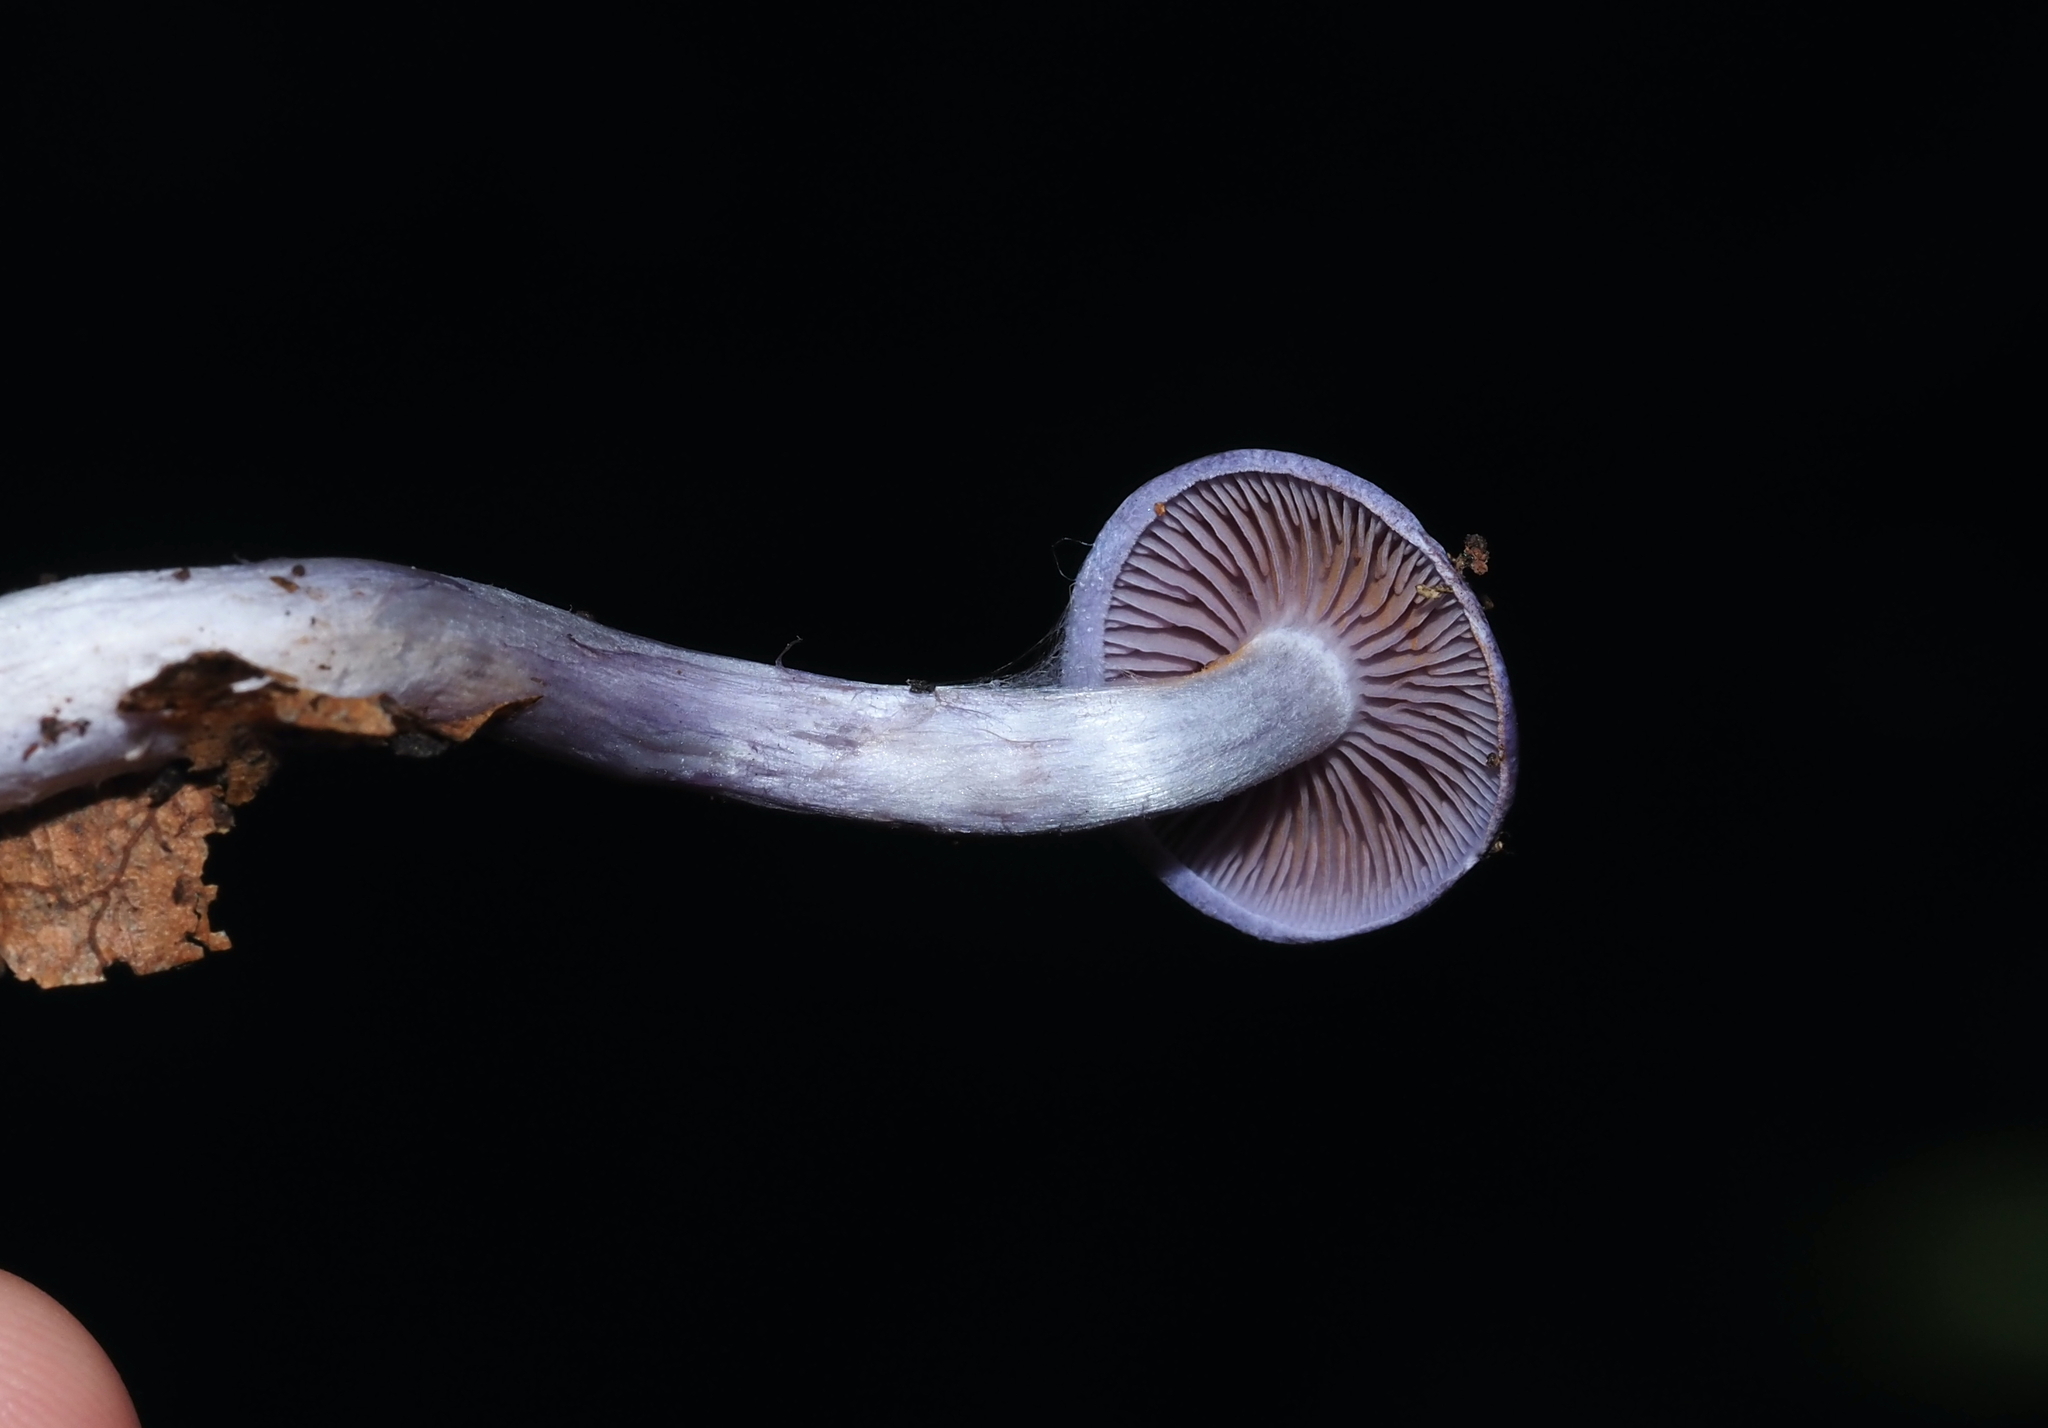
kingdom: Fungi
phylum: Basidiomycota
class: Agaricomycetes
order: Agaricales
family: Cortinariaceae
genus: Cortinarius
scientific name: Cortinarius iodes
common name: Viscid violet cort
